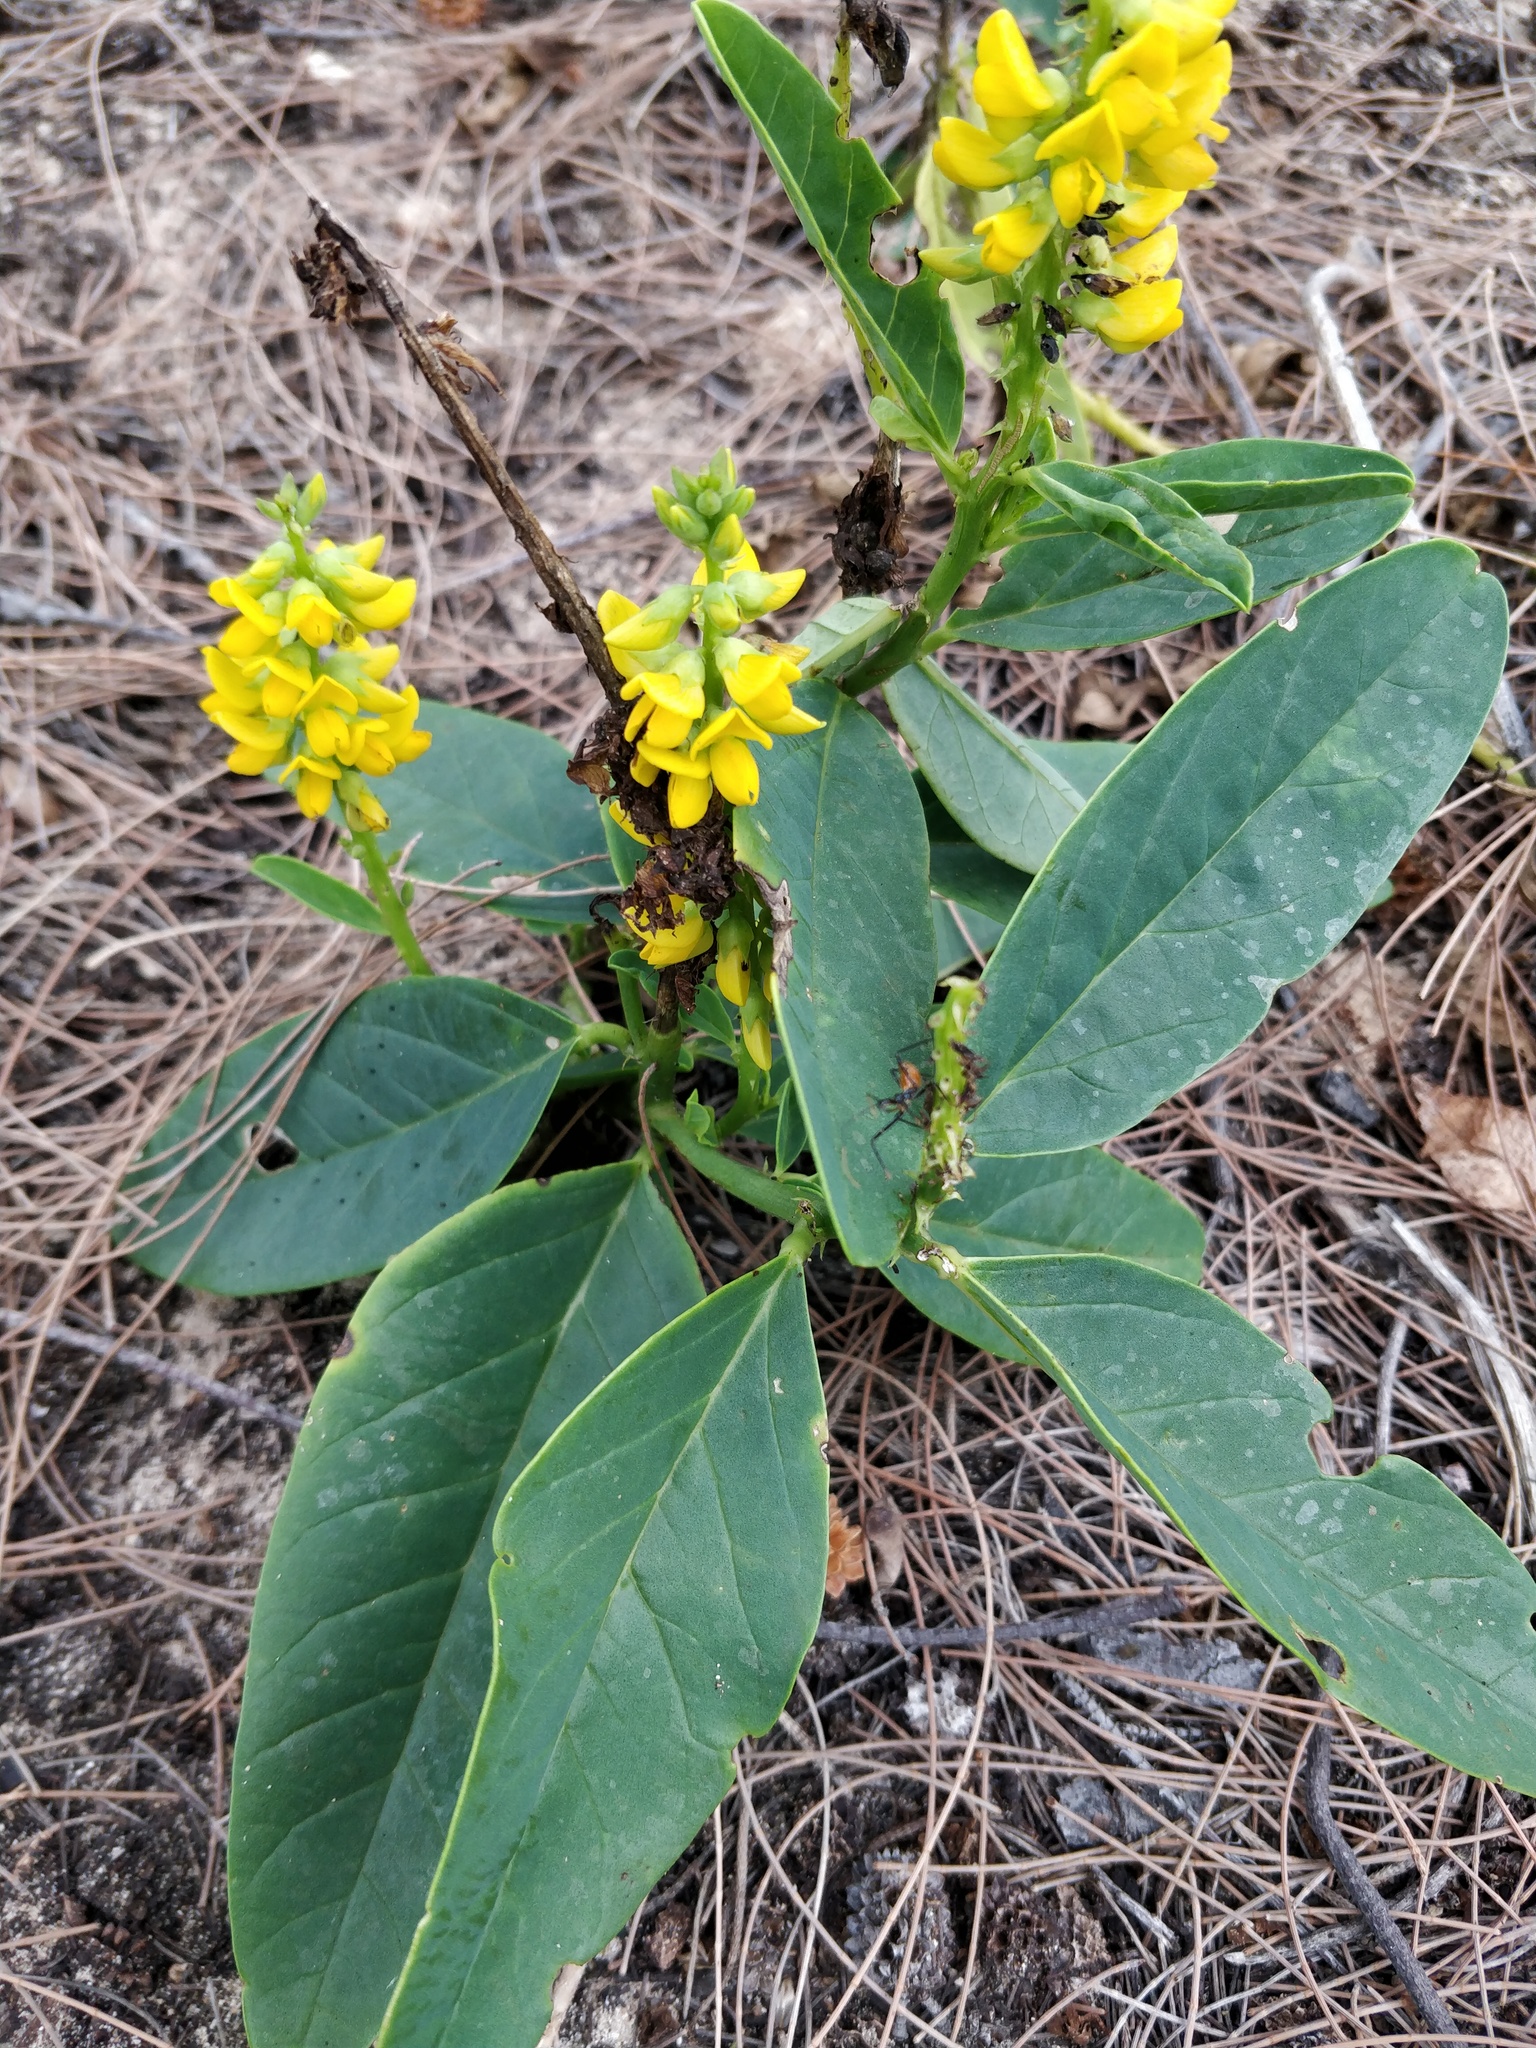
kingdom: Plantae
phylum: Tracheophyta
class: Magnoliopsida
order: Fabales
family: Fabaceae
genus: Crotalaria
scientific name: Crotalaria mitchellii
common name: Yellow rattlepod
